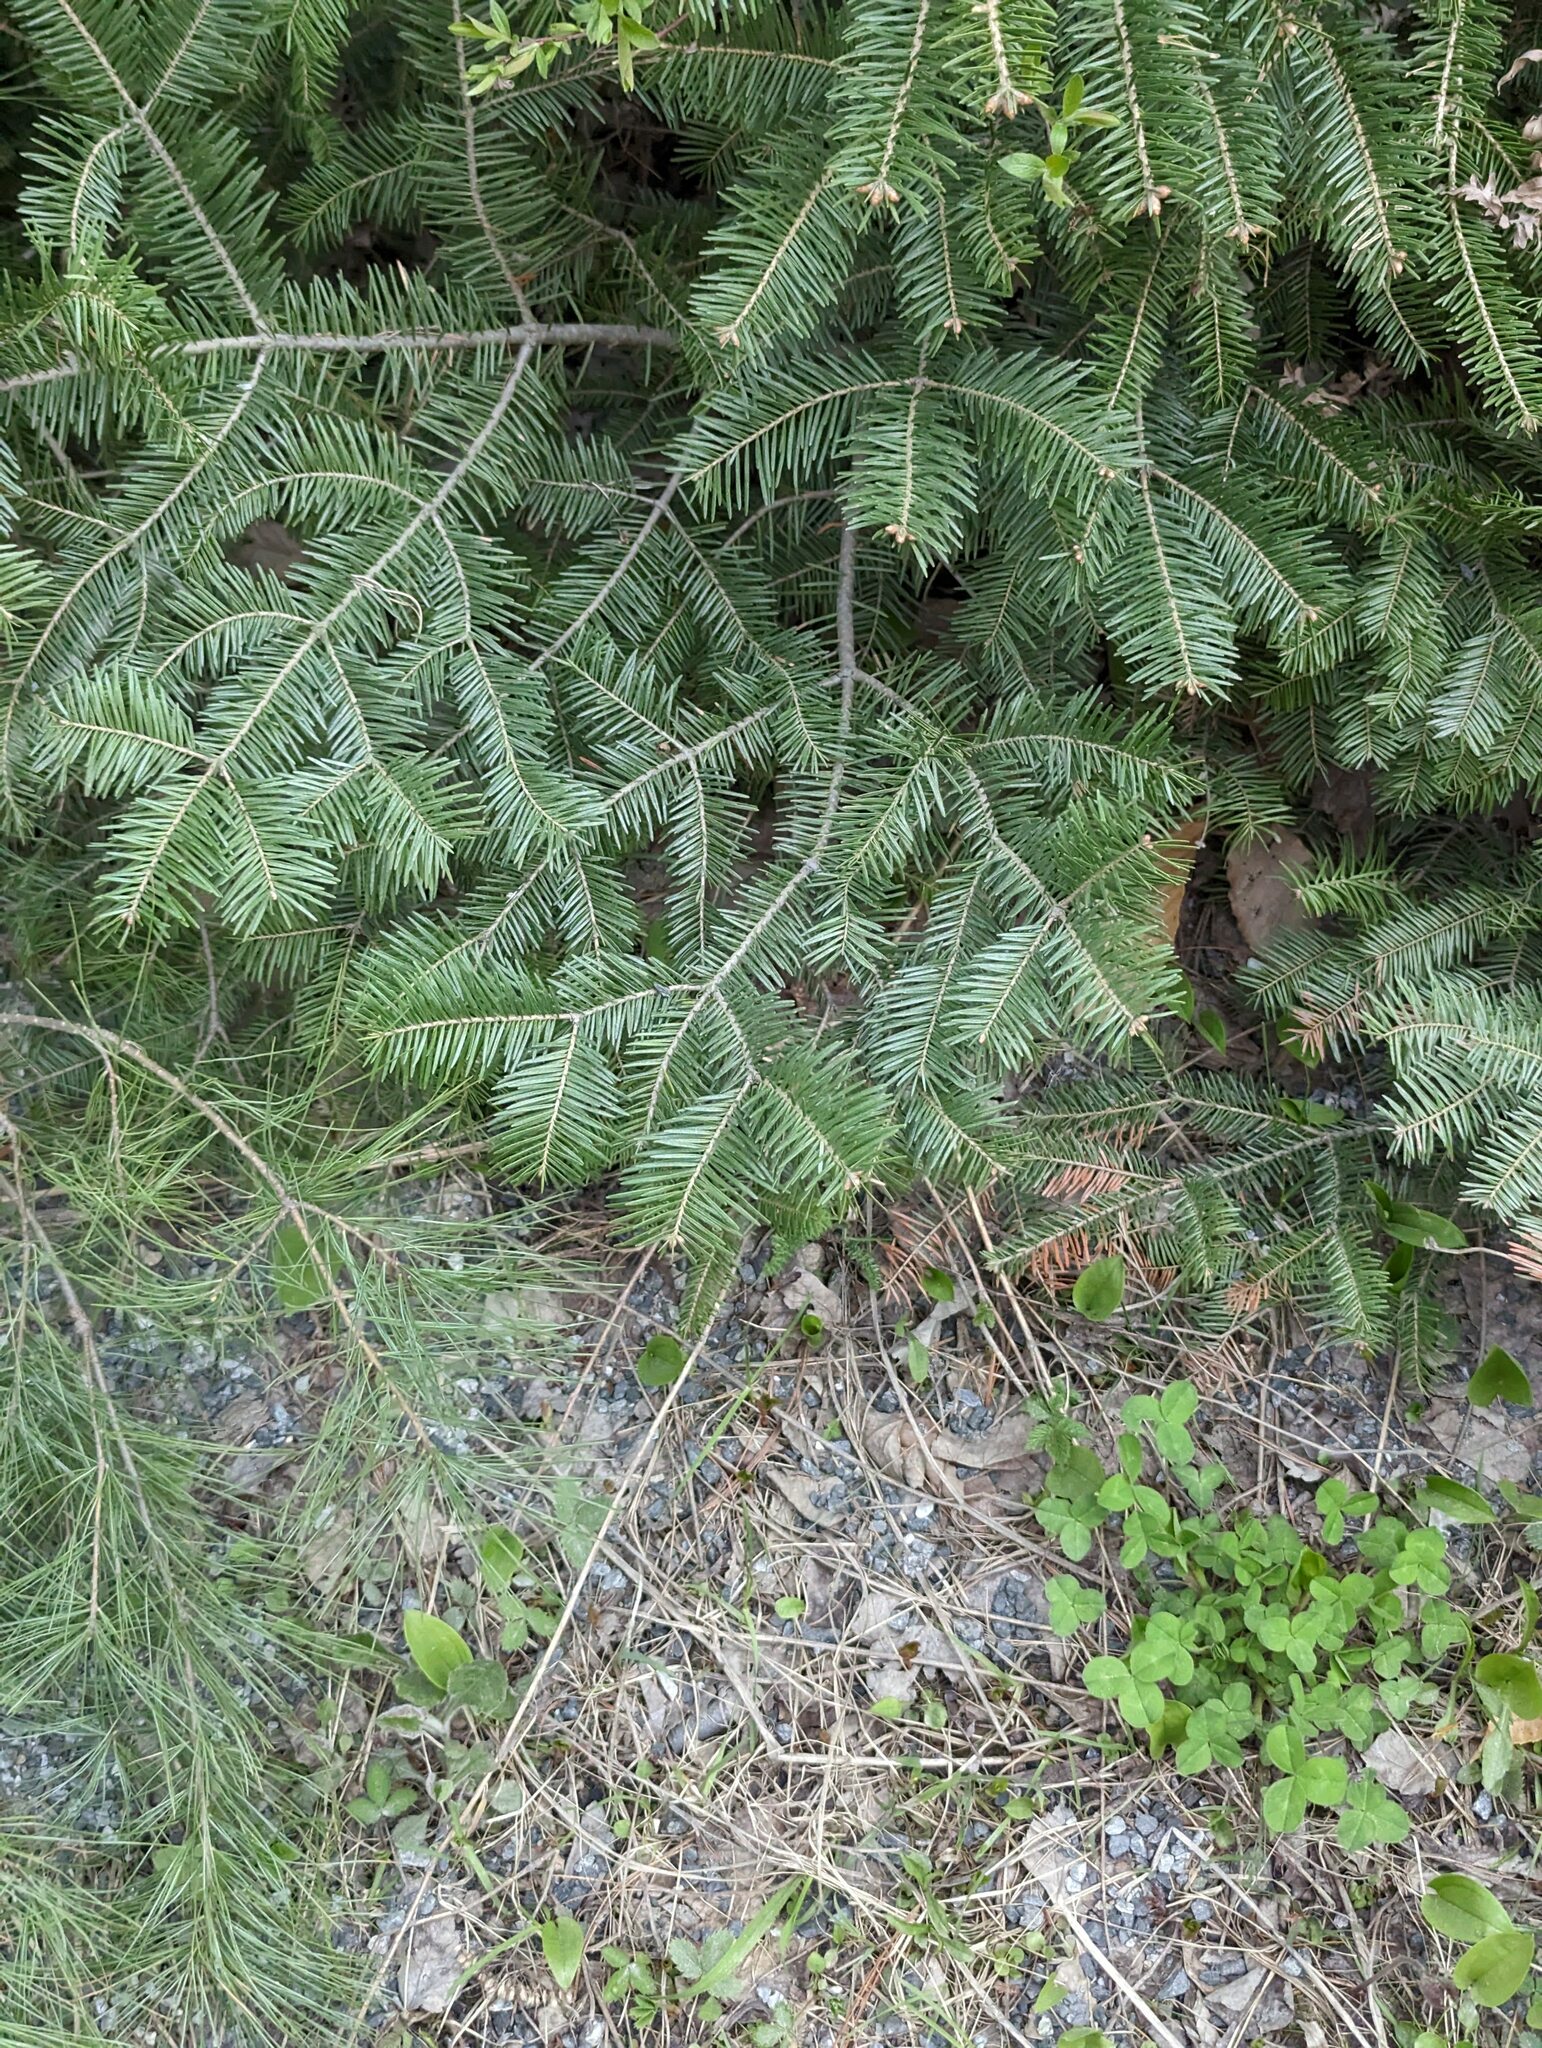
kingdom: Plantae
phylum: Tracheophyta
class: Pinopsida
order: Pinales
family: Pinaceae
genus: Abies
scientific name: Abies balsamea
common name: Balsam fir
